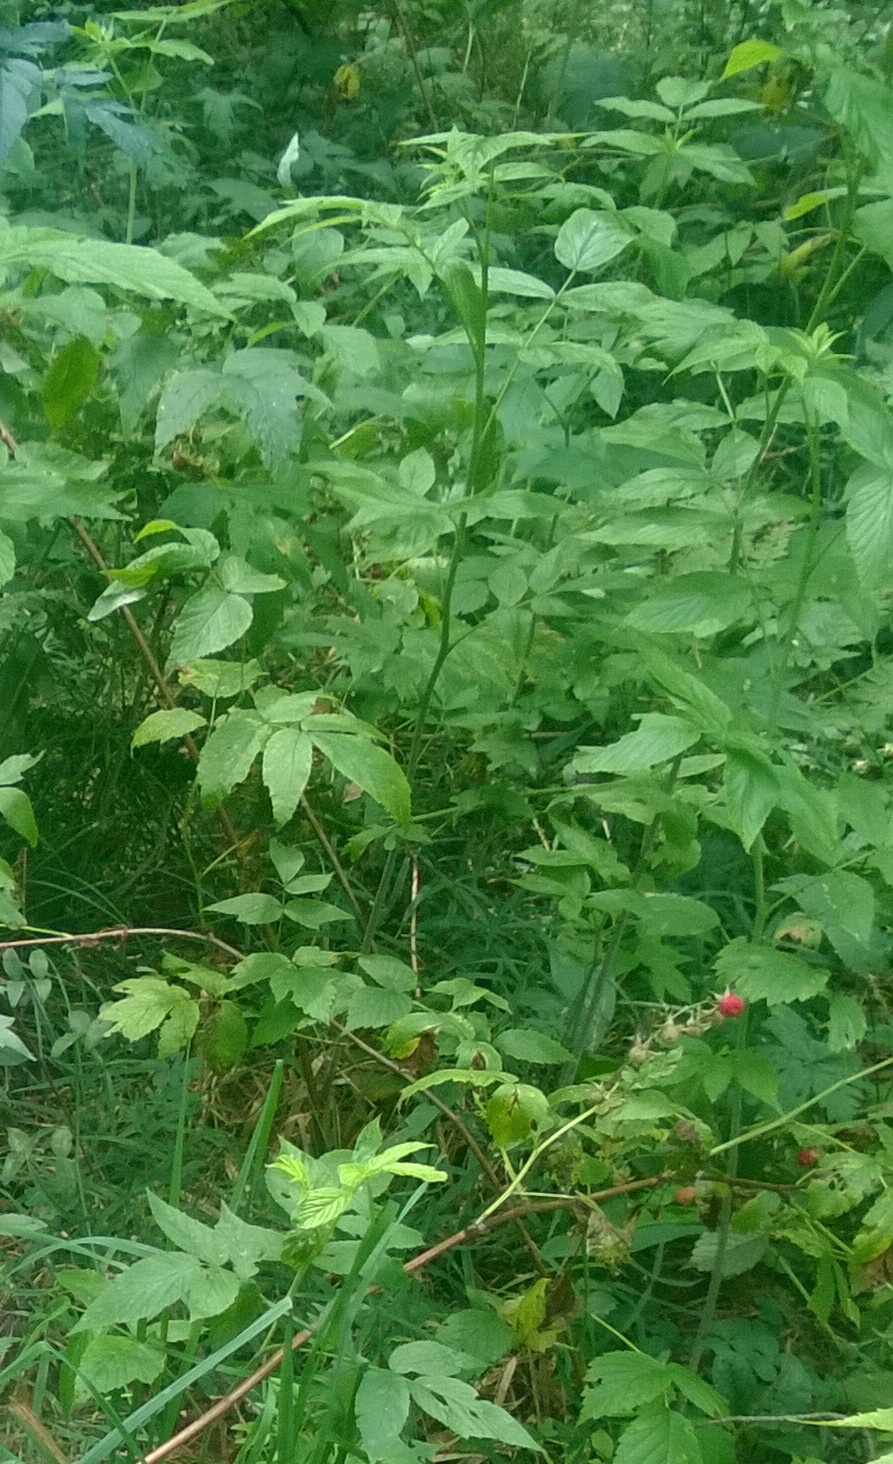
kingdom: Plantae
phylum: Tracheophyta
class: Magnoliopsida
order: Rosales
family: Rosaceae
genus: Rubus
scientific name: Rubus idaeus
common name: Raspberry
